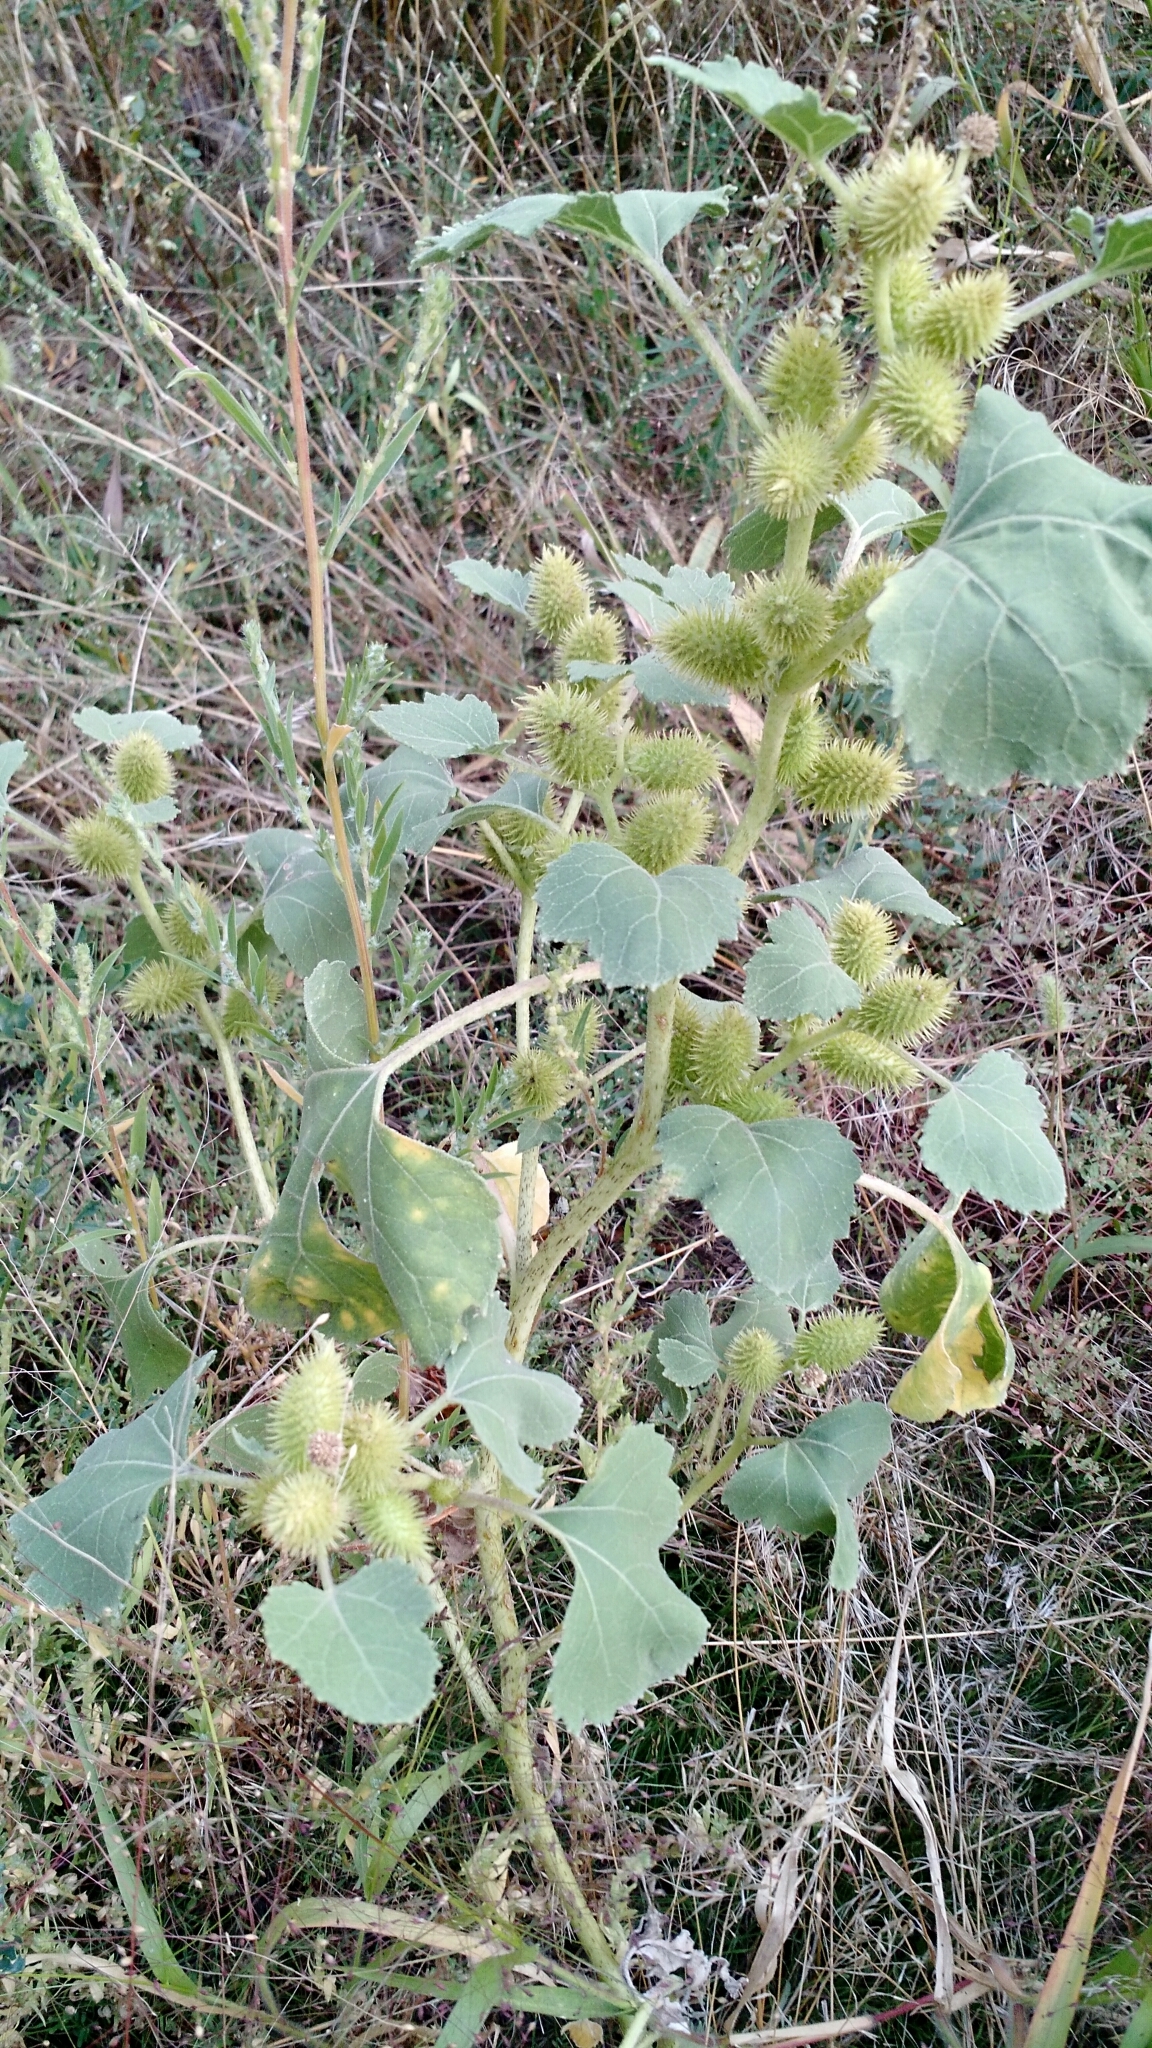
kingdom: Plantae
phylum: Tracheophyta
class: Magnoliopsida
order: Asterales
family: Asteraceae
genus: Xanthium
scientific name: Xanthium strumarium
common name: Rough cocklebur
